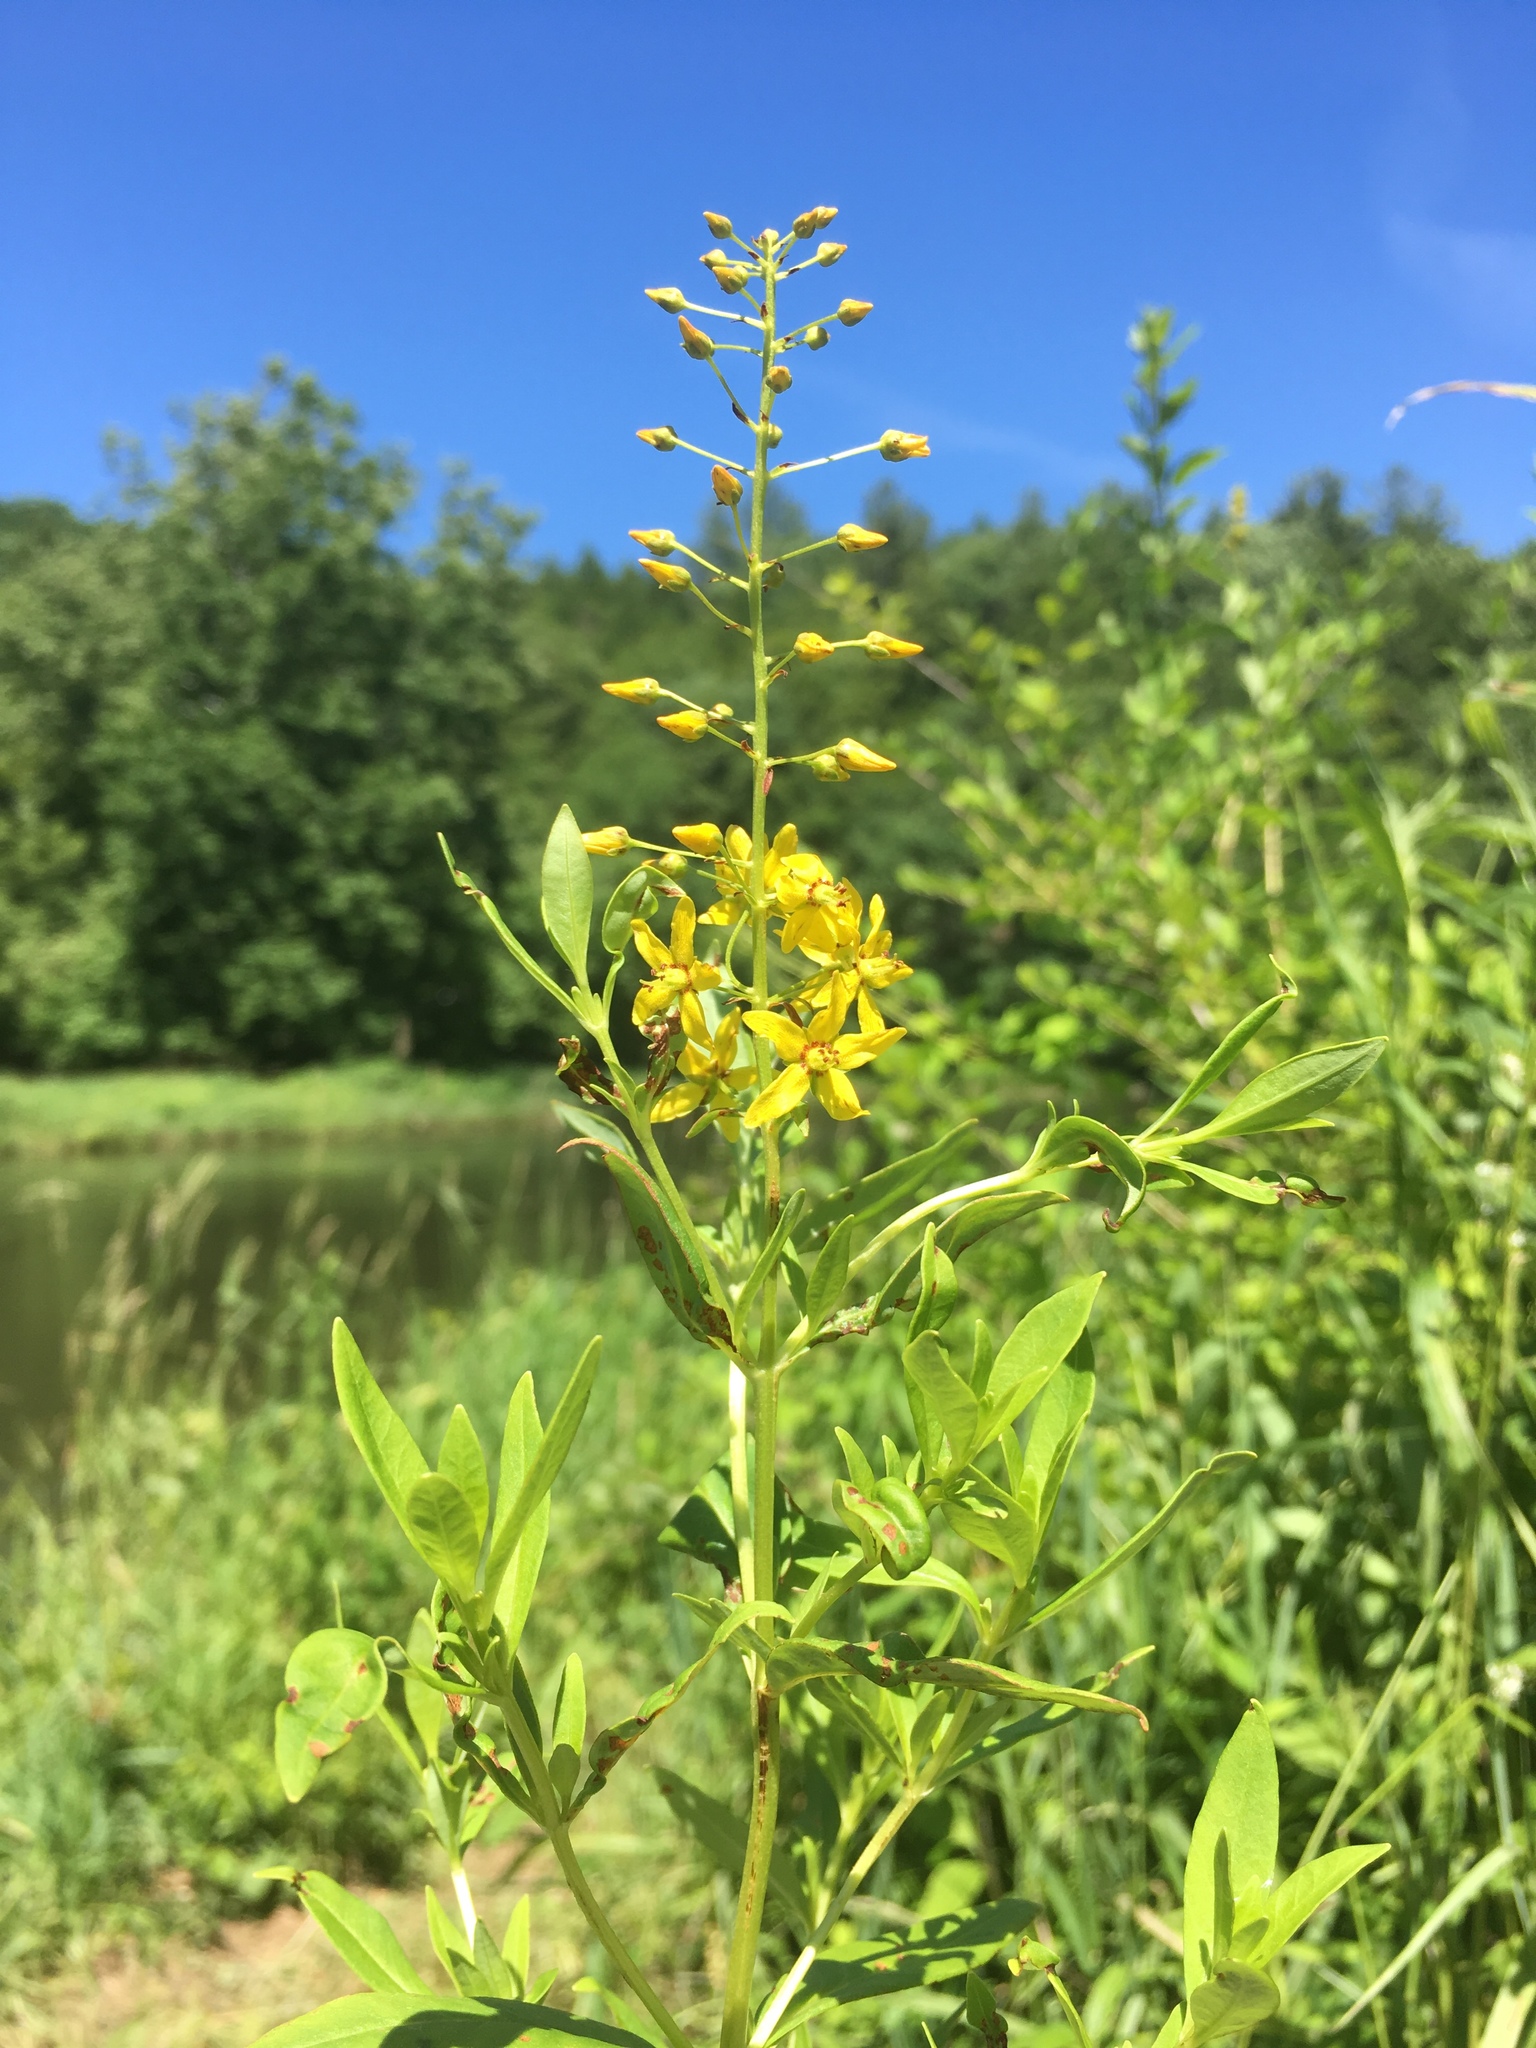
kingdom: Plantae
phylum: Tracheophyta
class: Magnoliopsida
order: Ericales
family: Primulaceae
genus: Lysimachia
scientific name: Lysimachia terrestris
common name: Lake loosestrife
